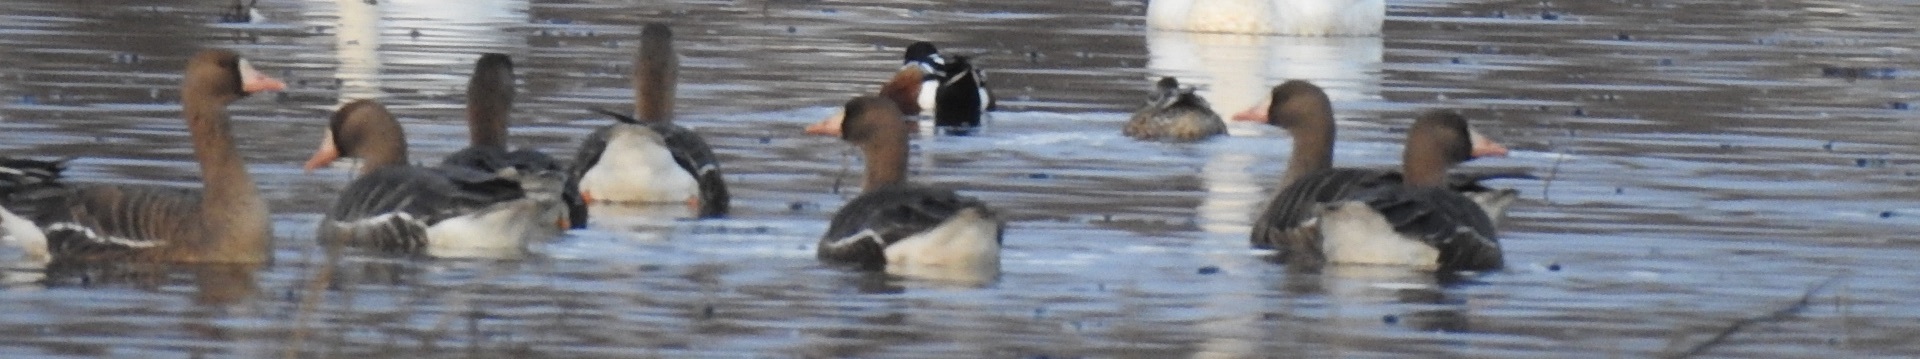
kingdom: Animalia
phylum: Chordata
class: Aves
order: Anseriformes
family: Anatidae
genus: Anser
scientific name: Anser albifrons
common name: Greater white-fronted goose
